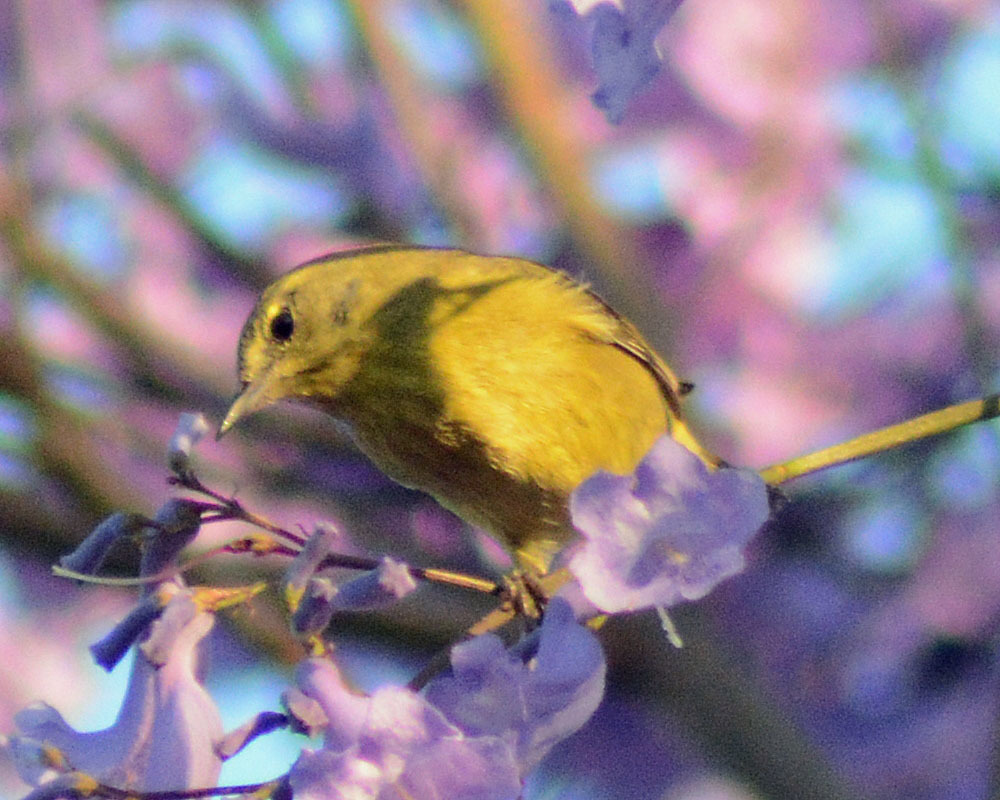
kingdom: Animalia
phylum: Chordata
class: Aves
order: Passeriformes
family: Parulidae
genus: Leiothlypis
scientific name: Leiothlypis celata
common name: Orange-crowned warbler
